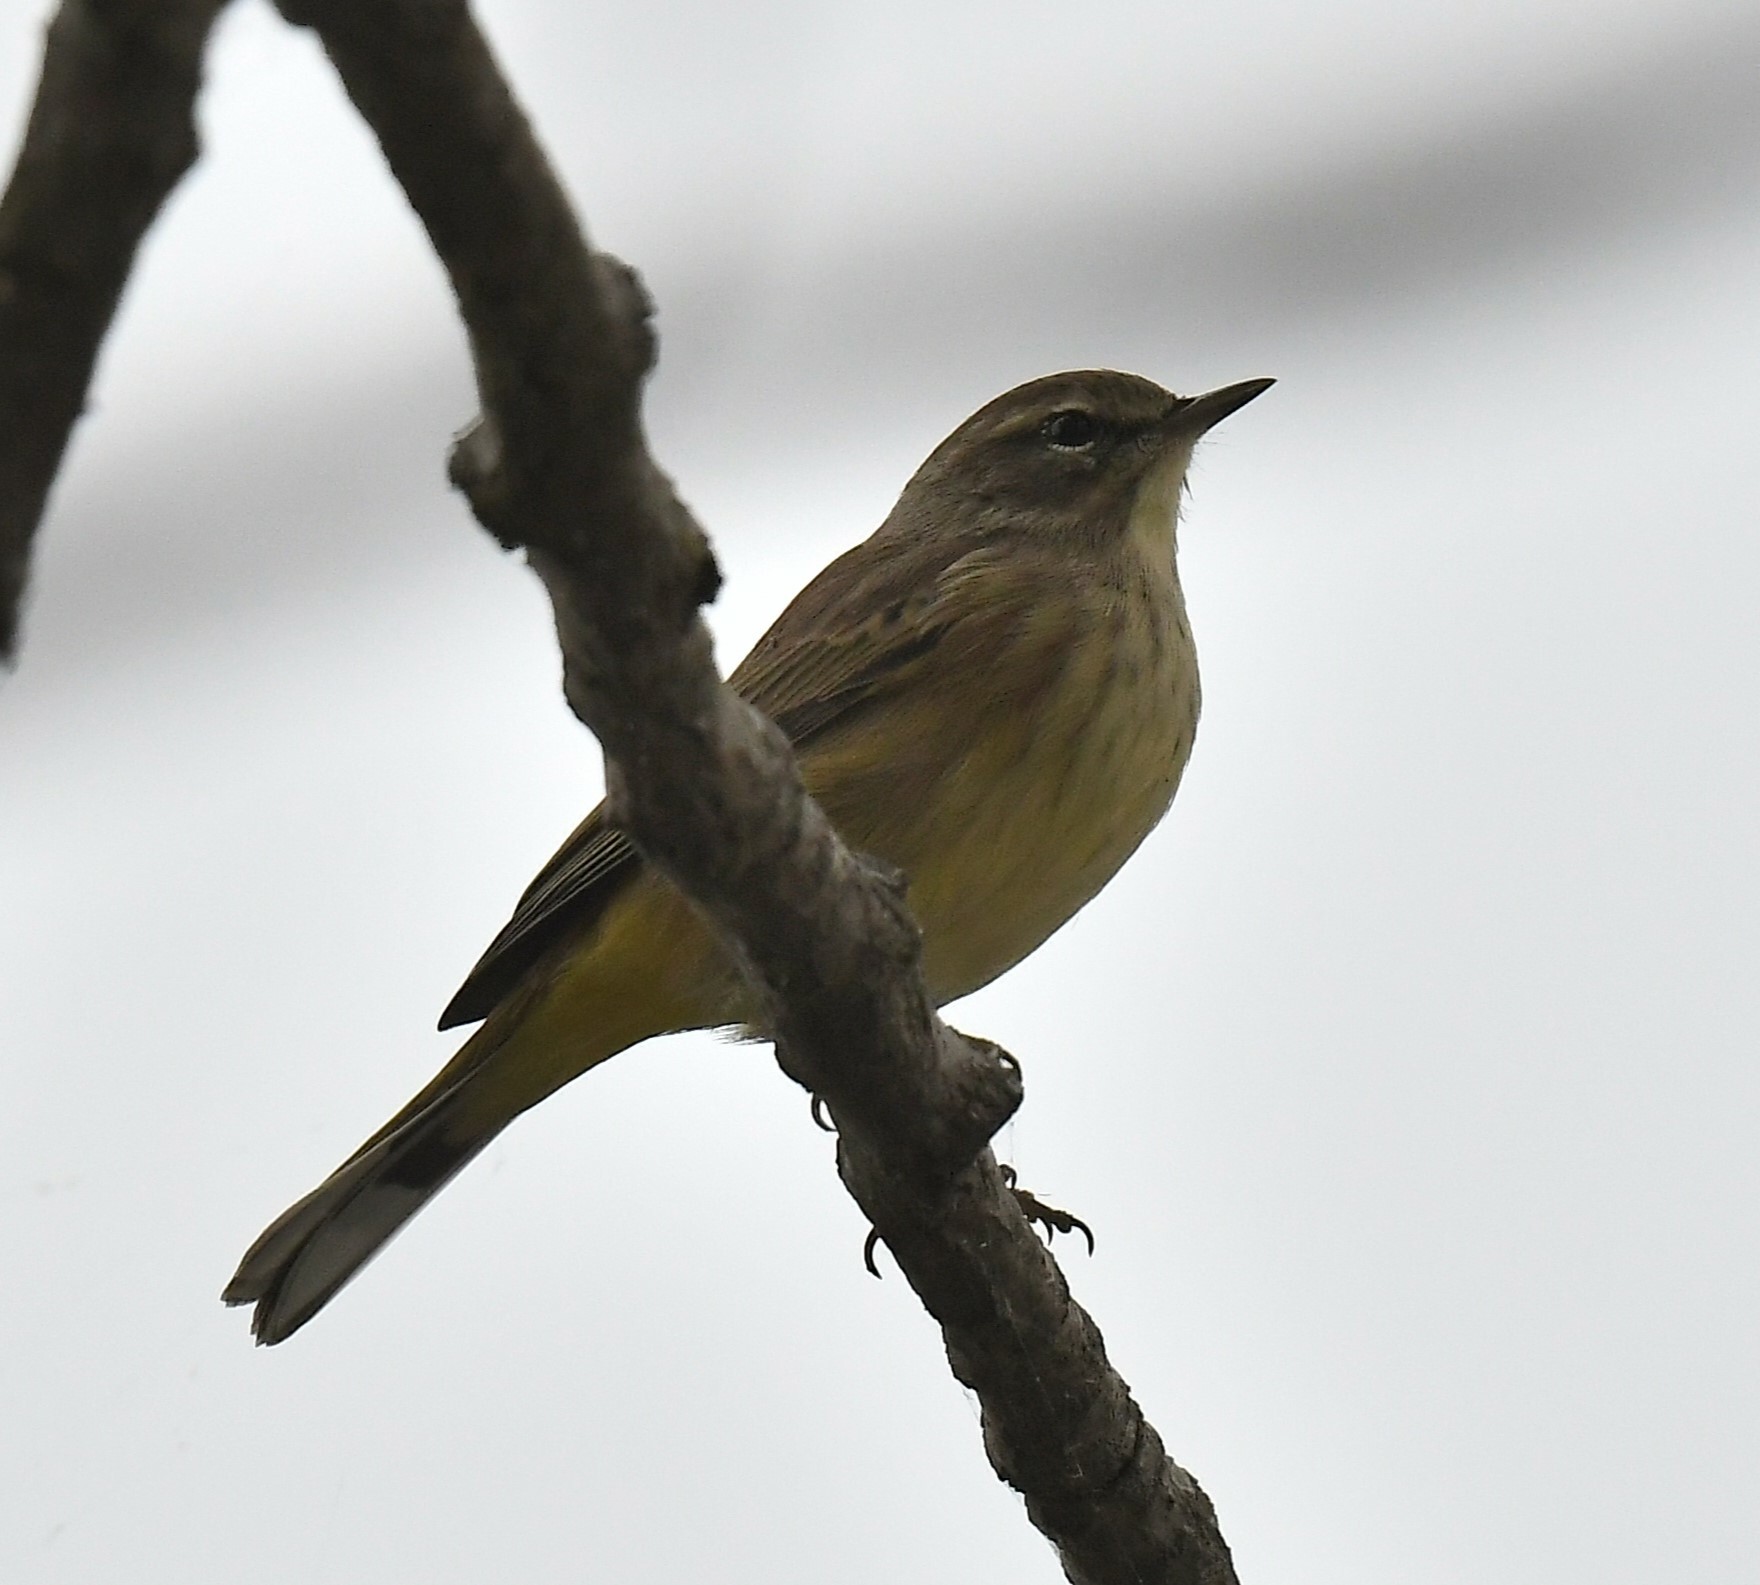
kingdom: Animalia
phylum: Chordata
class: Aves
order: Passeriformes
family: Parulidae
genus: Setophaga
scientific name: Setophaga palmarum
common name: Palm warbler
